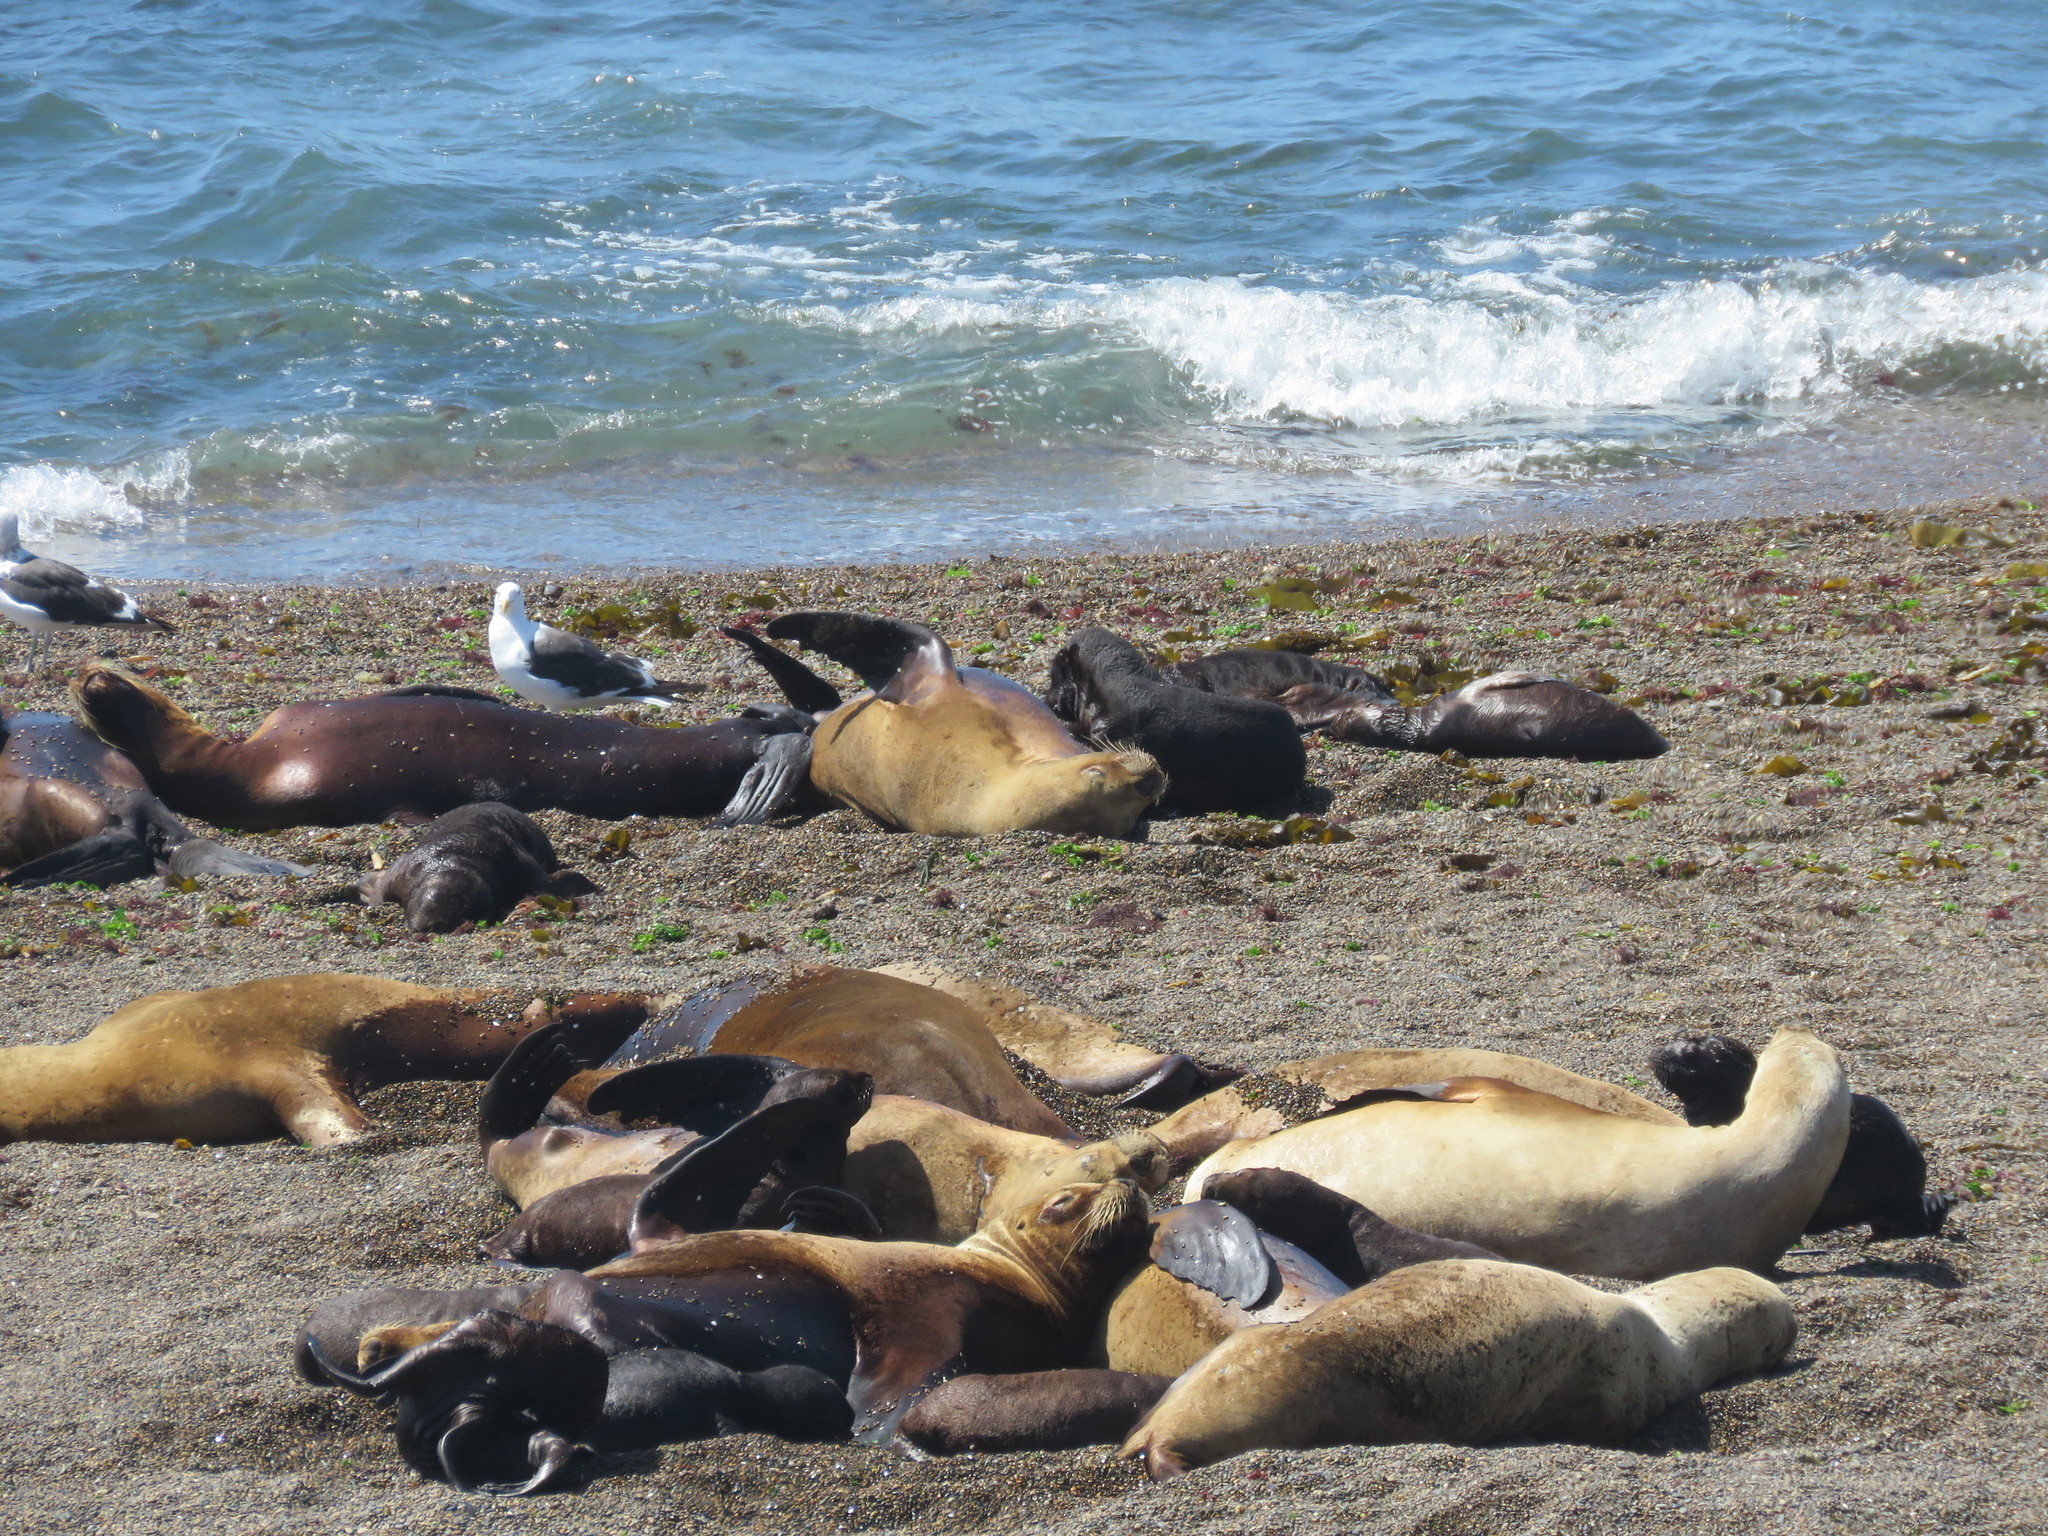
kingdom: Animalia
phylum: Chordata
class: Mammalia
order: Carnivora
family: Otariidae
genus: Otaria
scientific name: Otaria byronia
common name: South american sea lion
